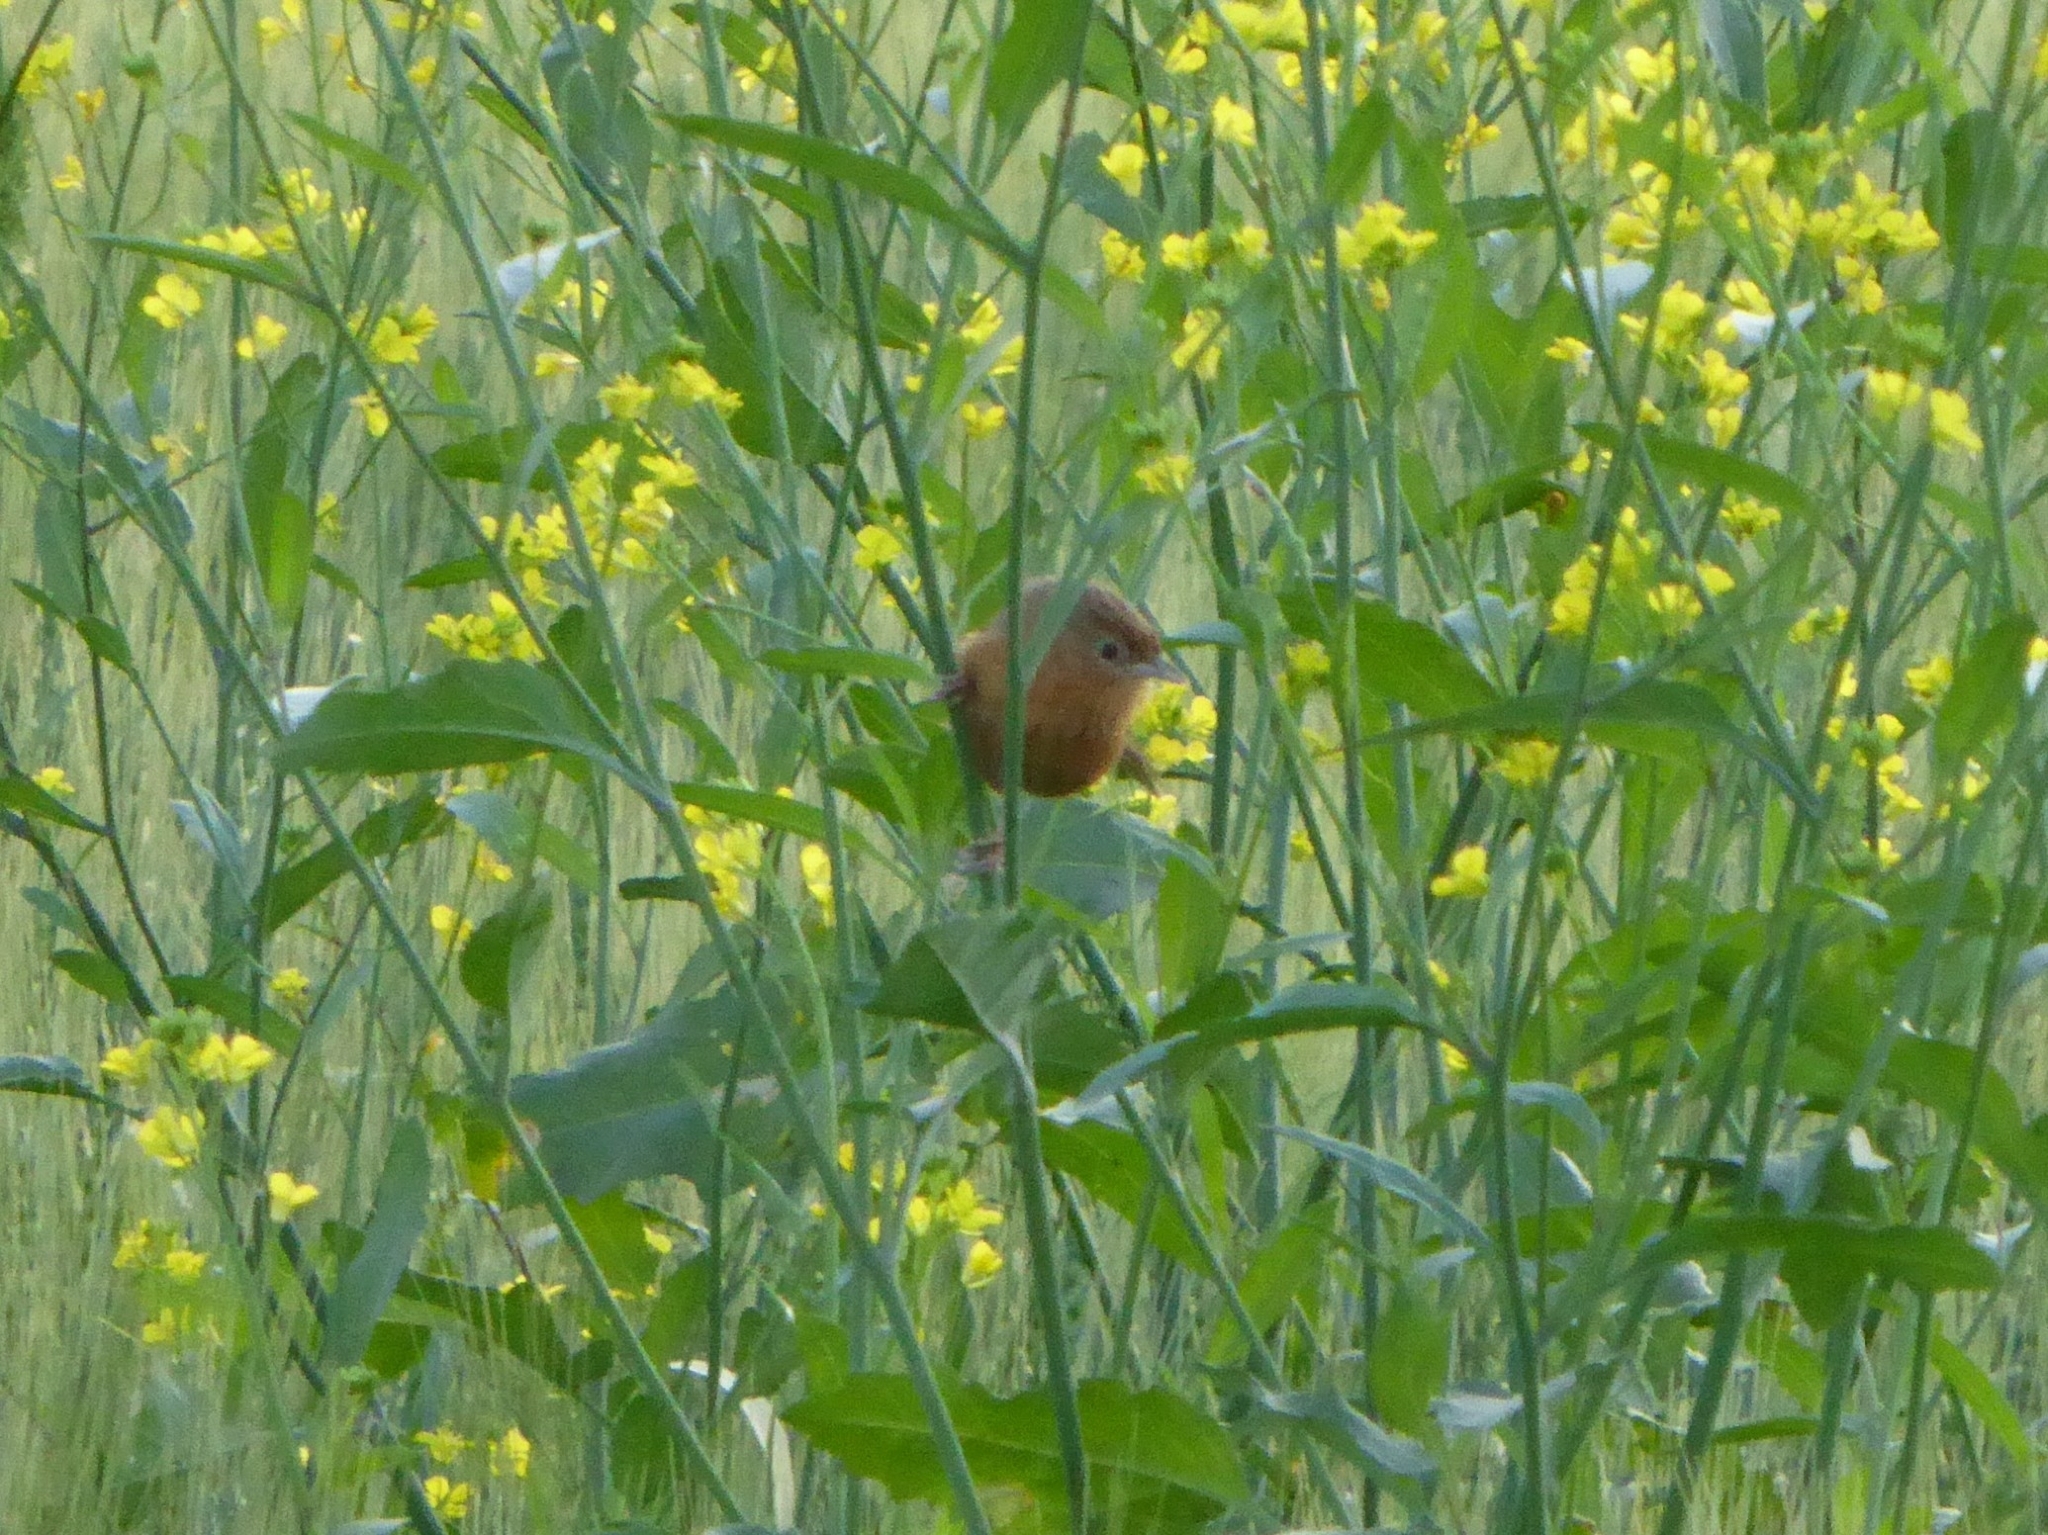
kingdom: Animalia
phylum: Chordata
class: Aves
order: Passeriformes
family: Timaliidae
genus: Dumetia
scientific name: Dumetia hyperythra
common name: Tawny-bellied babbler
